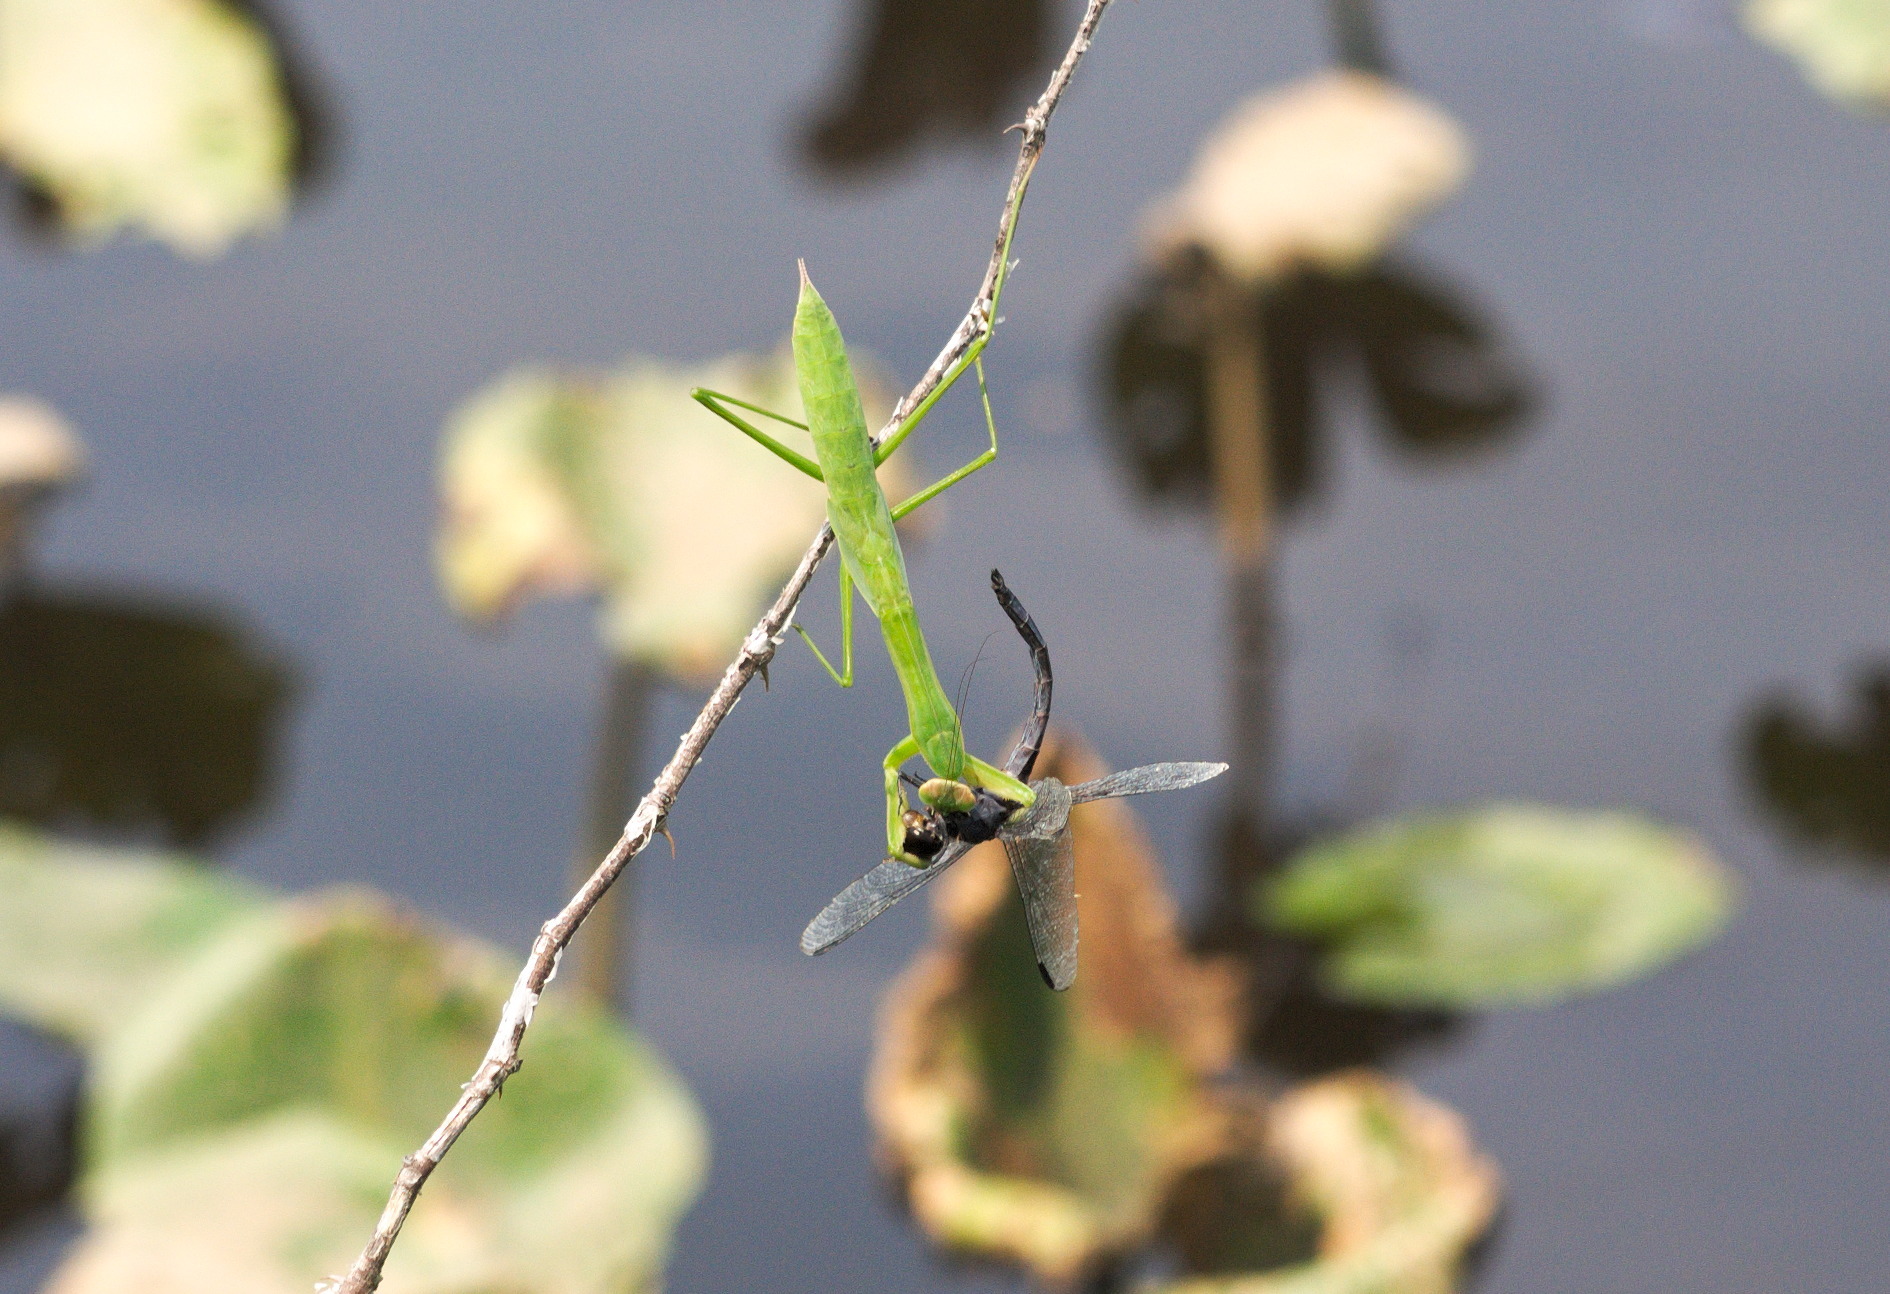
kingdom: Animalia
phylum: Arthropoda
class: Insecta
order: Mantodea
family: Mantidae
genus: Tenodera
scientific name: Tenodera sinensis
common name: Chinese mantis
